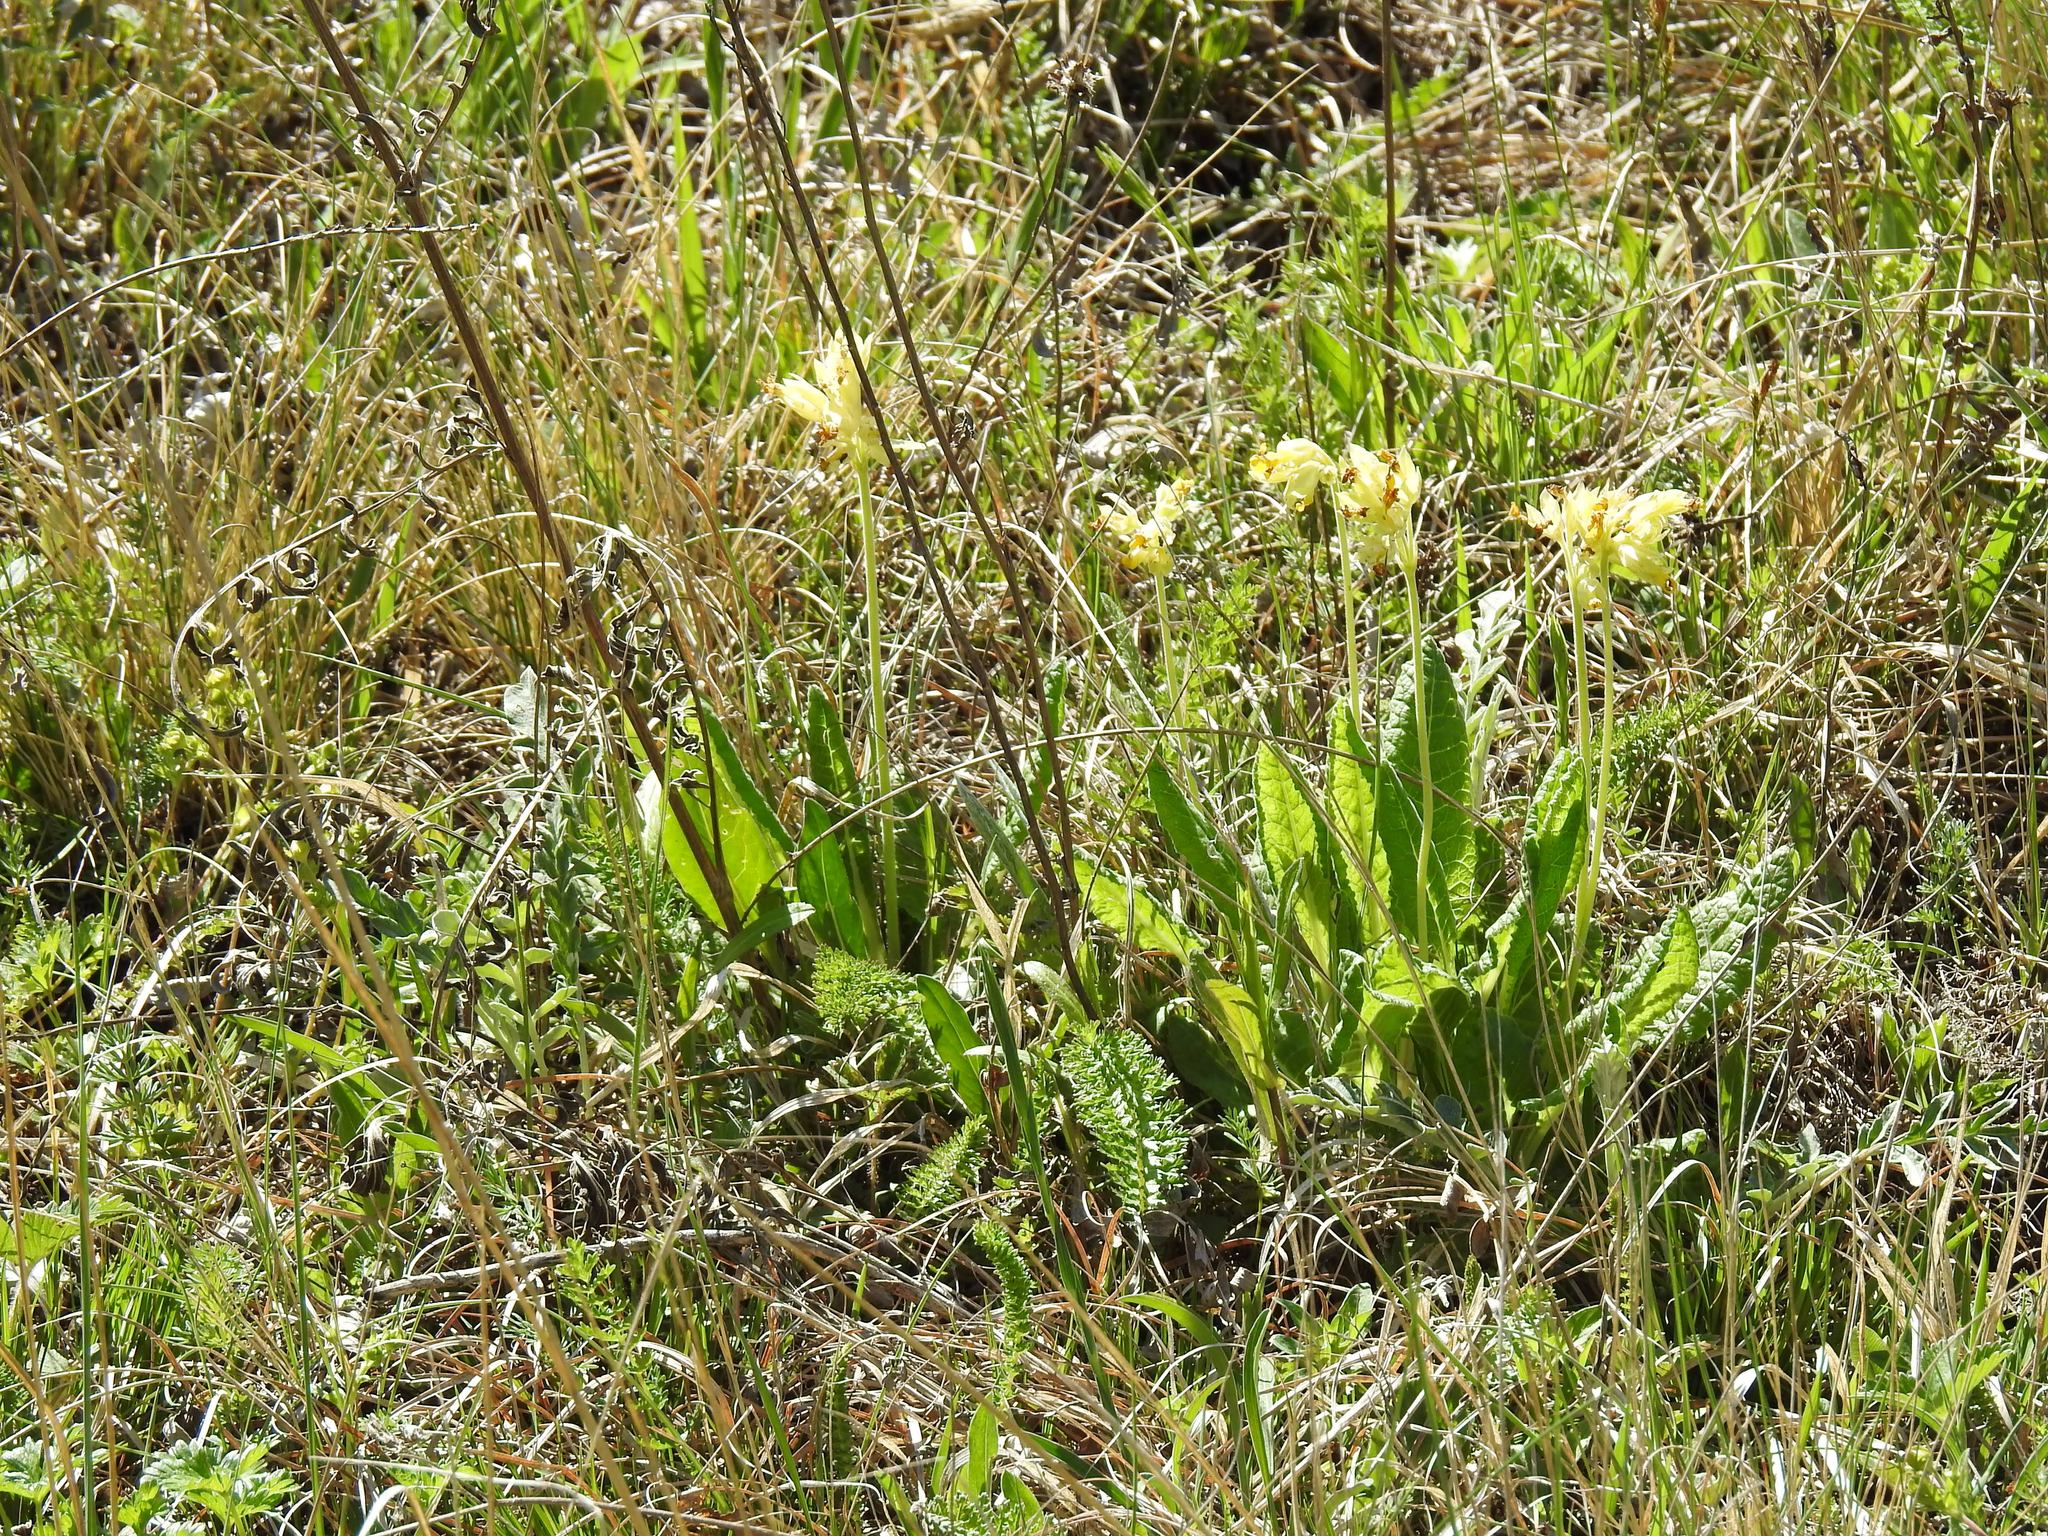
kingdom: Plantae
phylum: Tracheophyta
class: Magnoliopsida
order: Ericales
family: Primulaceae
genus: Primula
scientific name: Primula veris
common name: Cowslip
